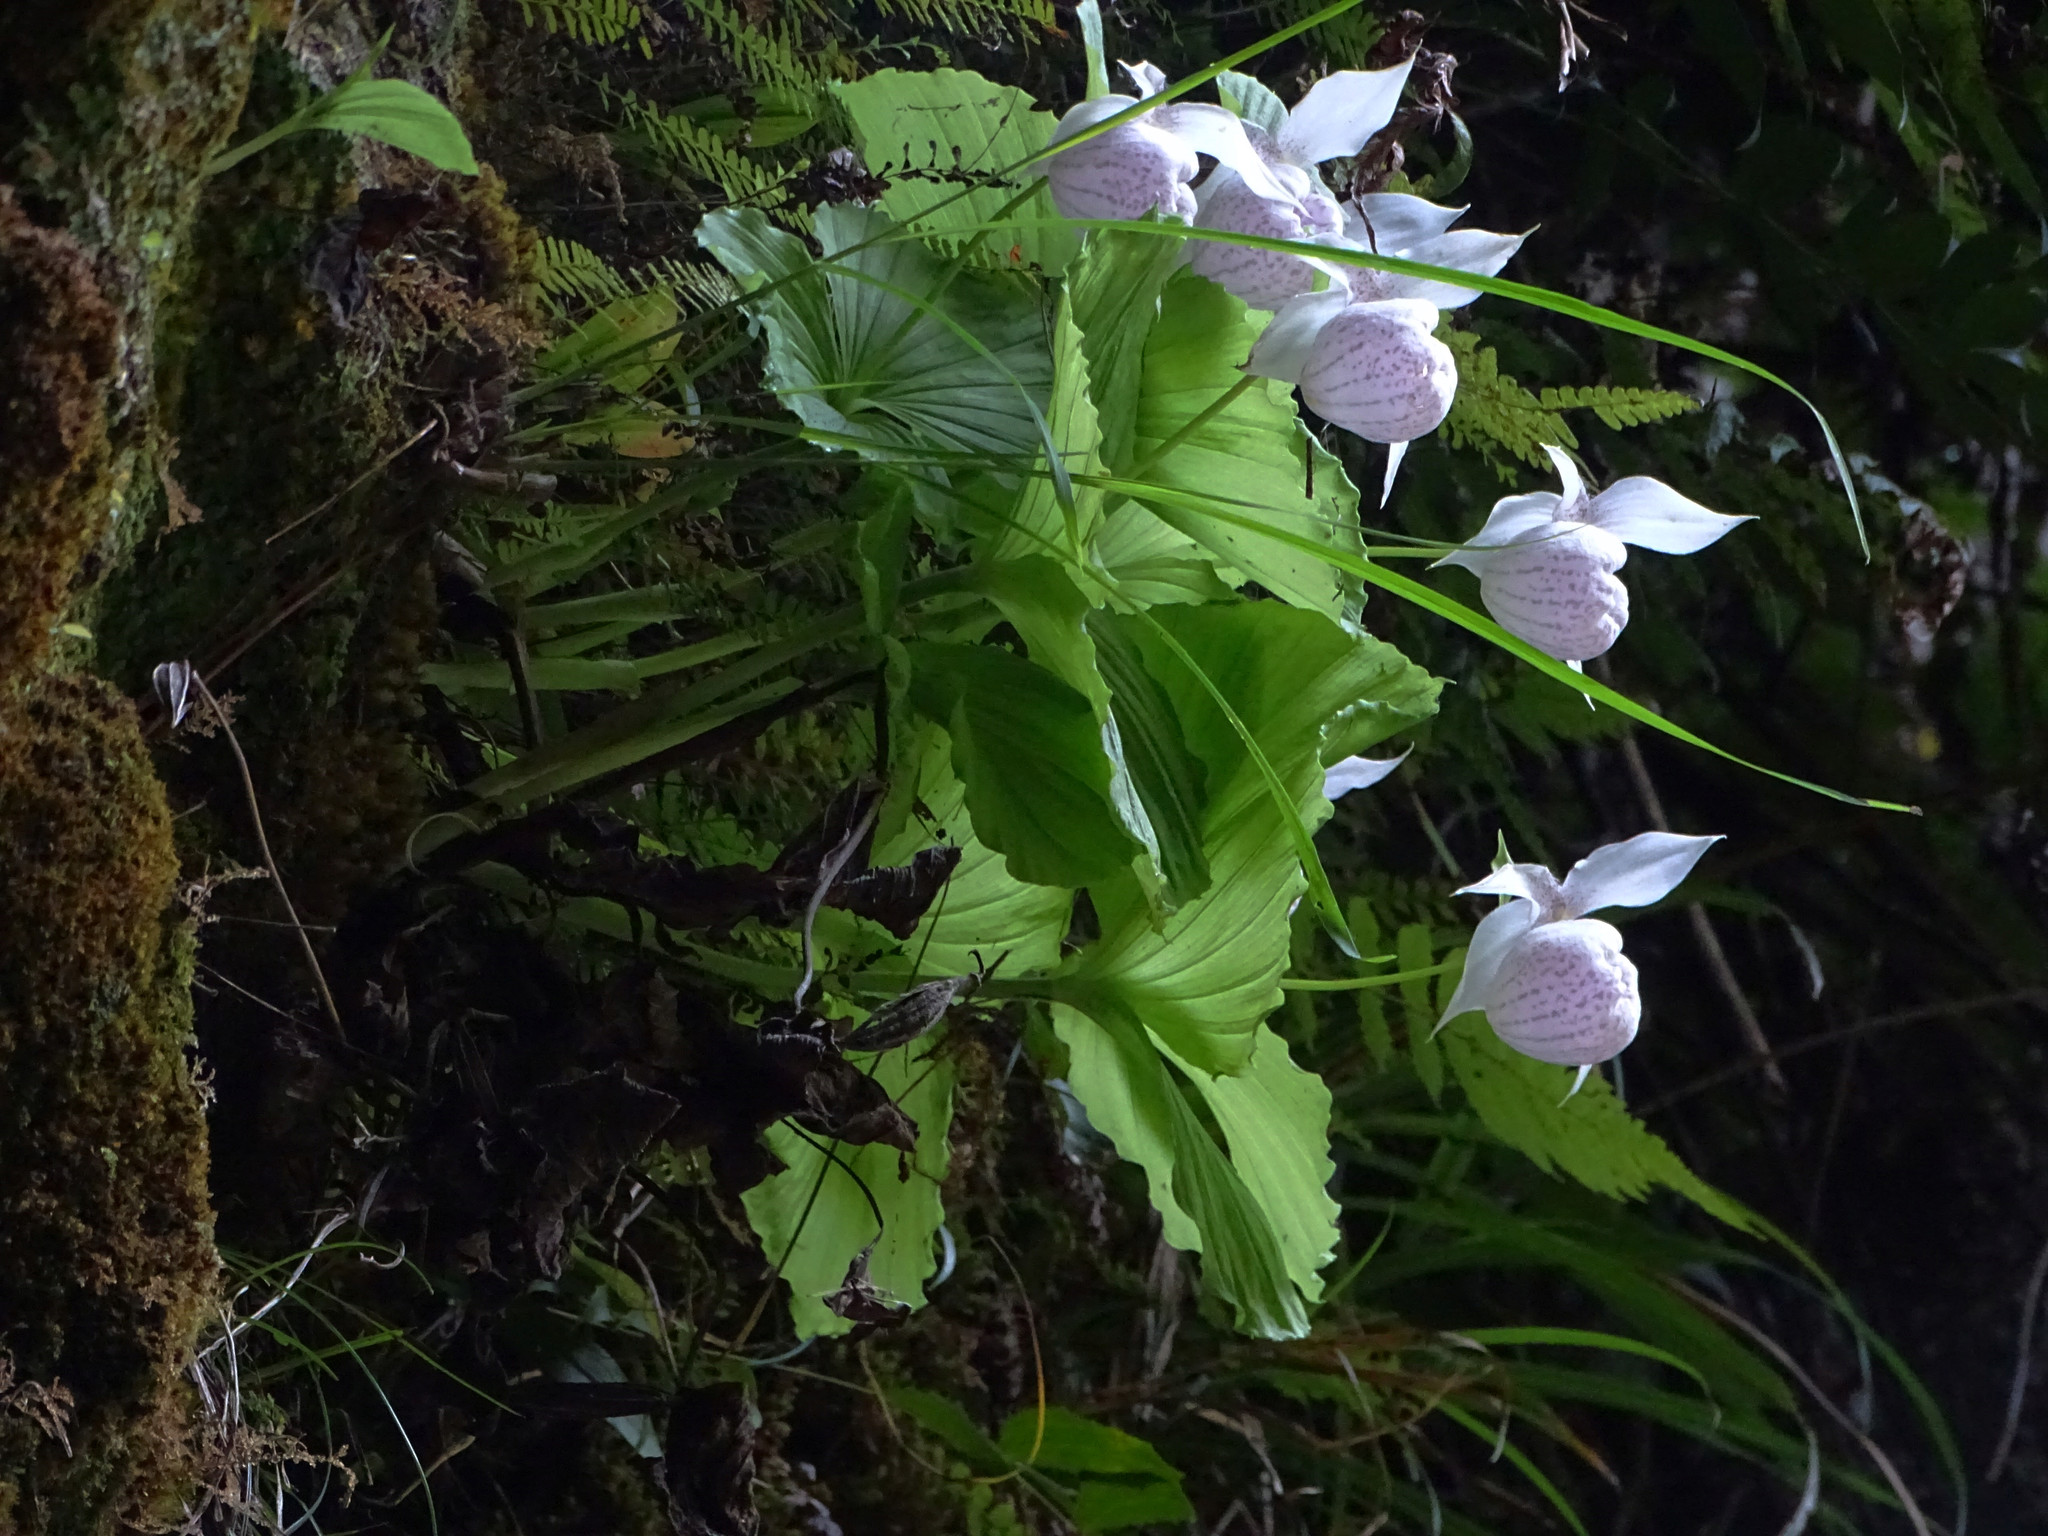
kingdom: Plantae
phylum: Tracheophyta
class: Liliopsida
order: Asparagales
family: Orchidaceae
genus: Cypripedium
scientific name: Cypripedium formosanum
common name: Formosa's lady's slipper
